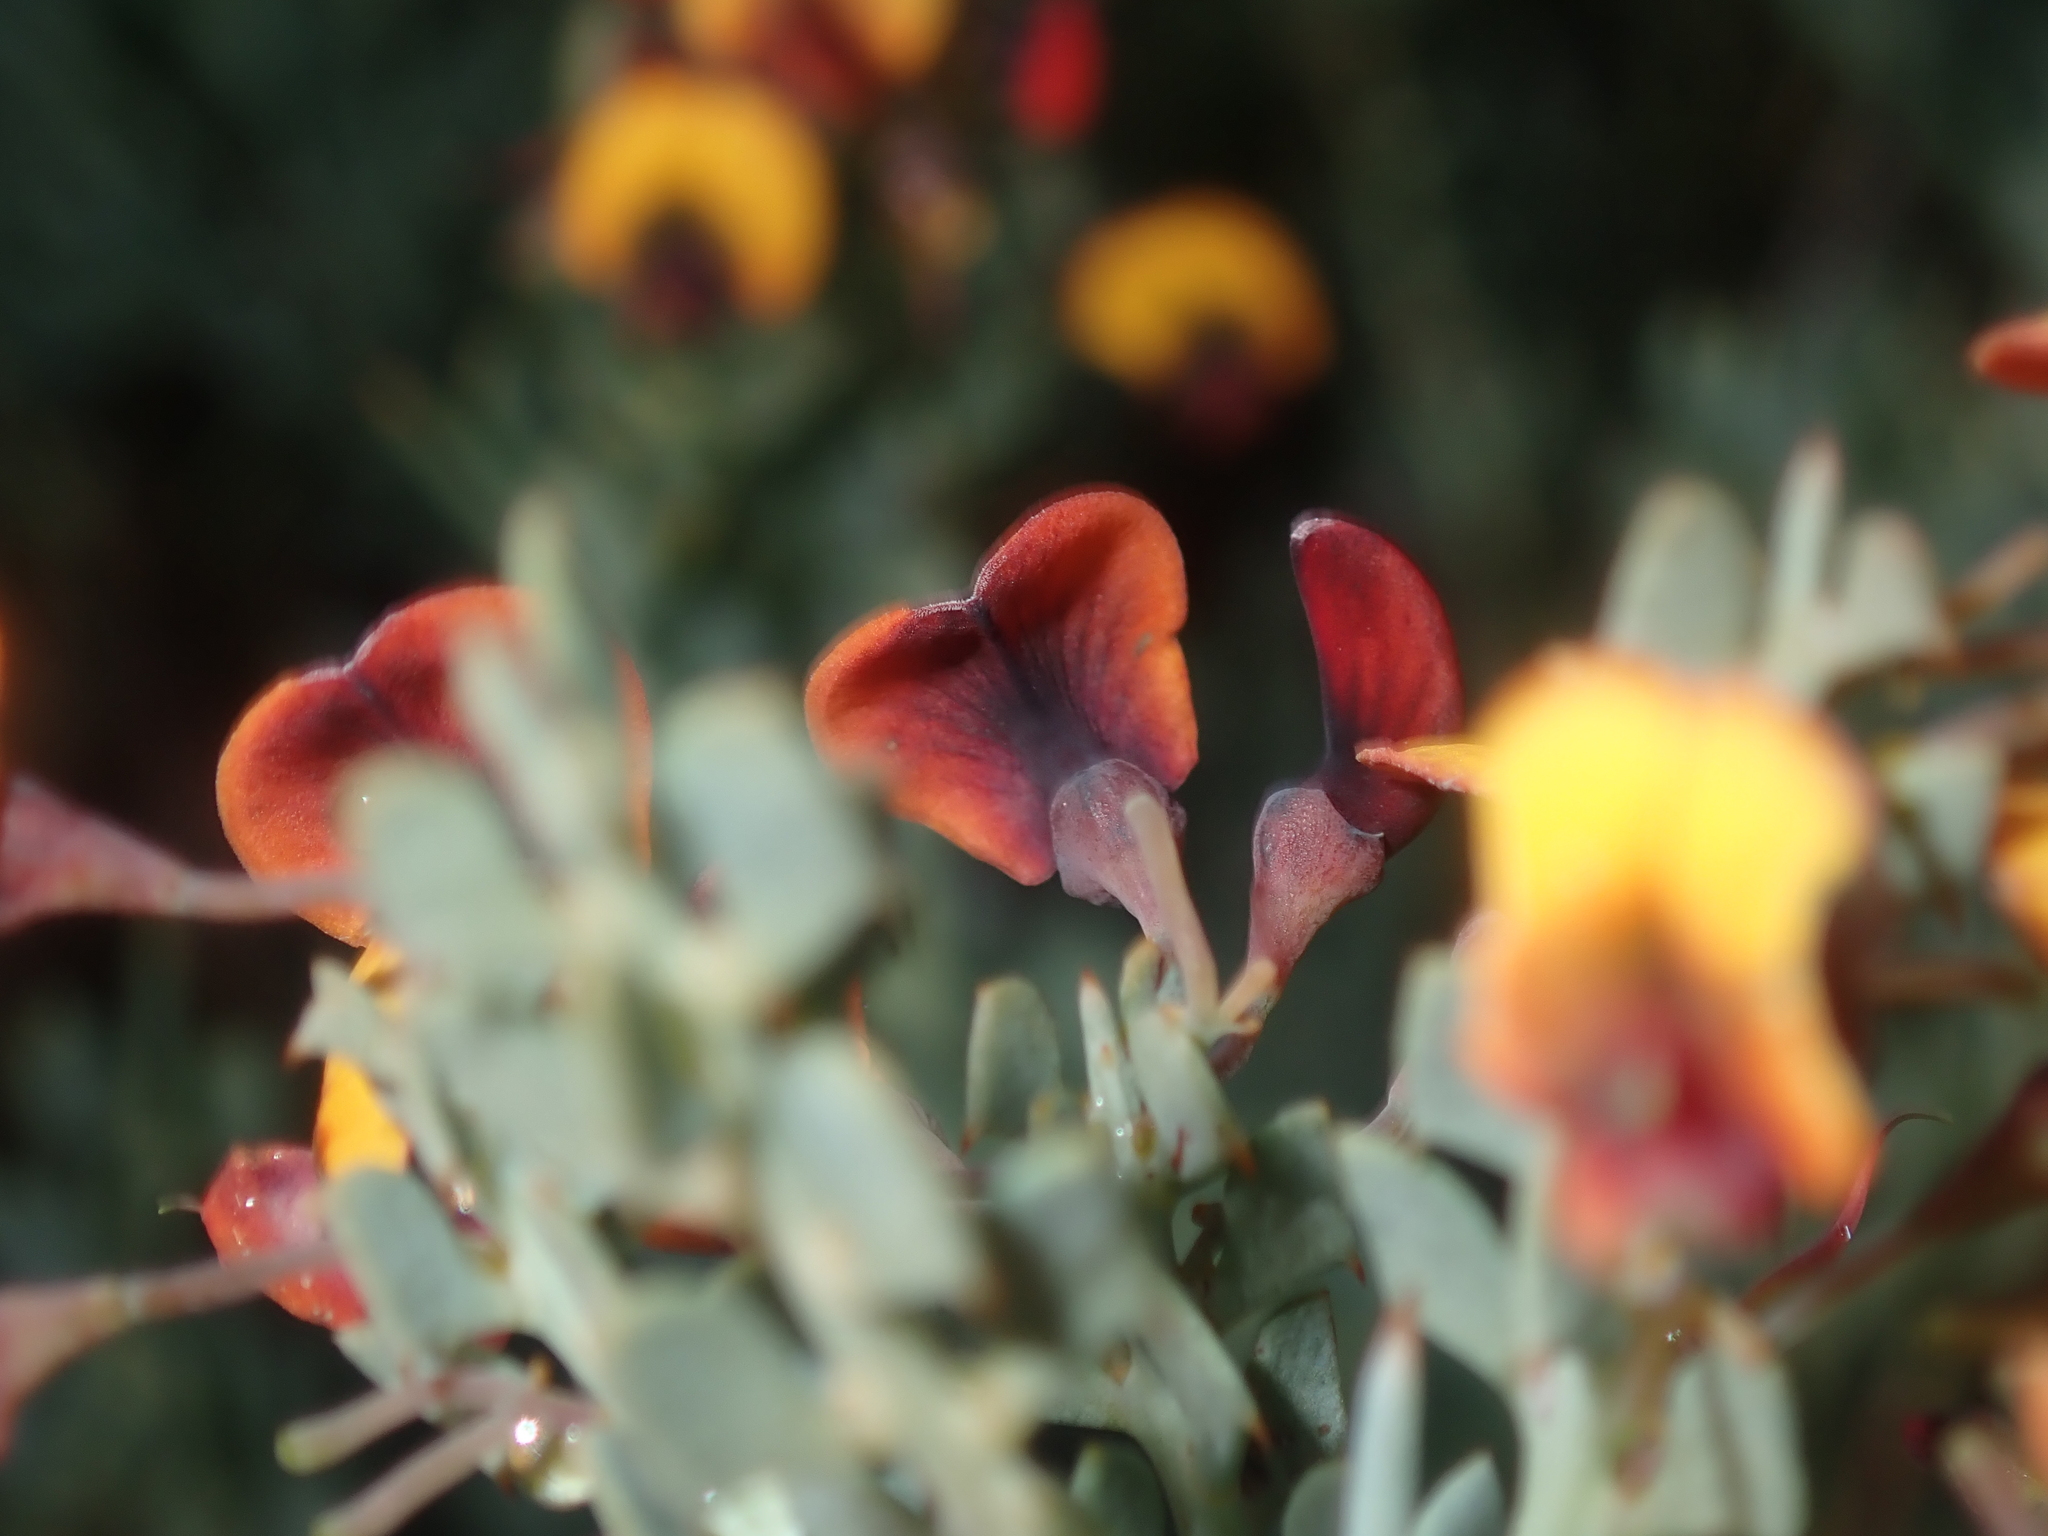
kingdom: Plantae
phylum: Tracheophyta
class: Magnoliopsida
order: Fabales
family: Fabaceae
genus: Daviesia
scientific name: Daviesia podophylla
